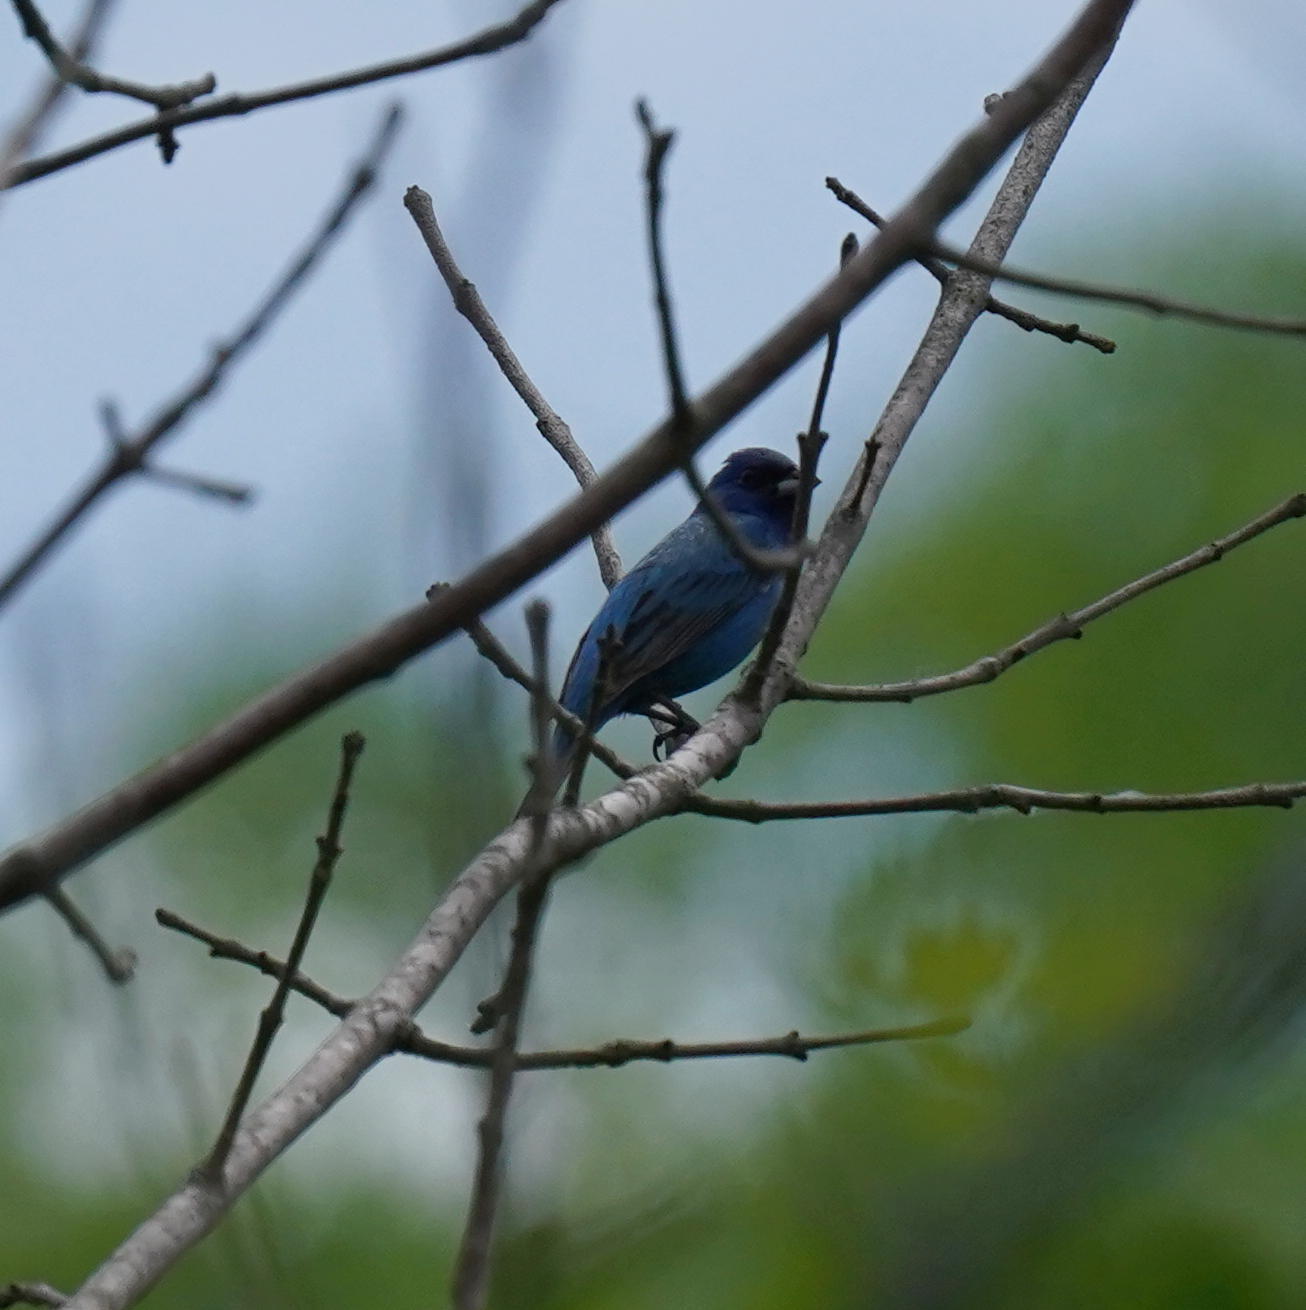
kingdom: Animalia
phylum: Chordata
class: Aves
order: Passeriformes
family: Cardinalidae
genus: Passerina
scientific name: Passerina cyanea
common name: Indigo bunting
